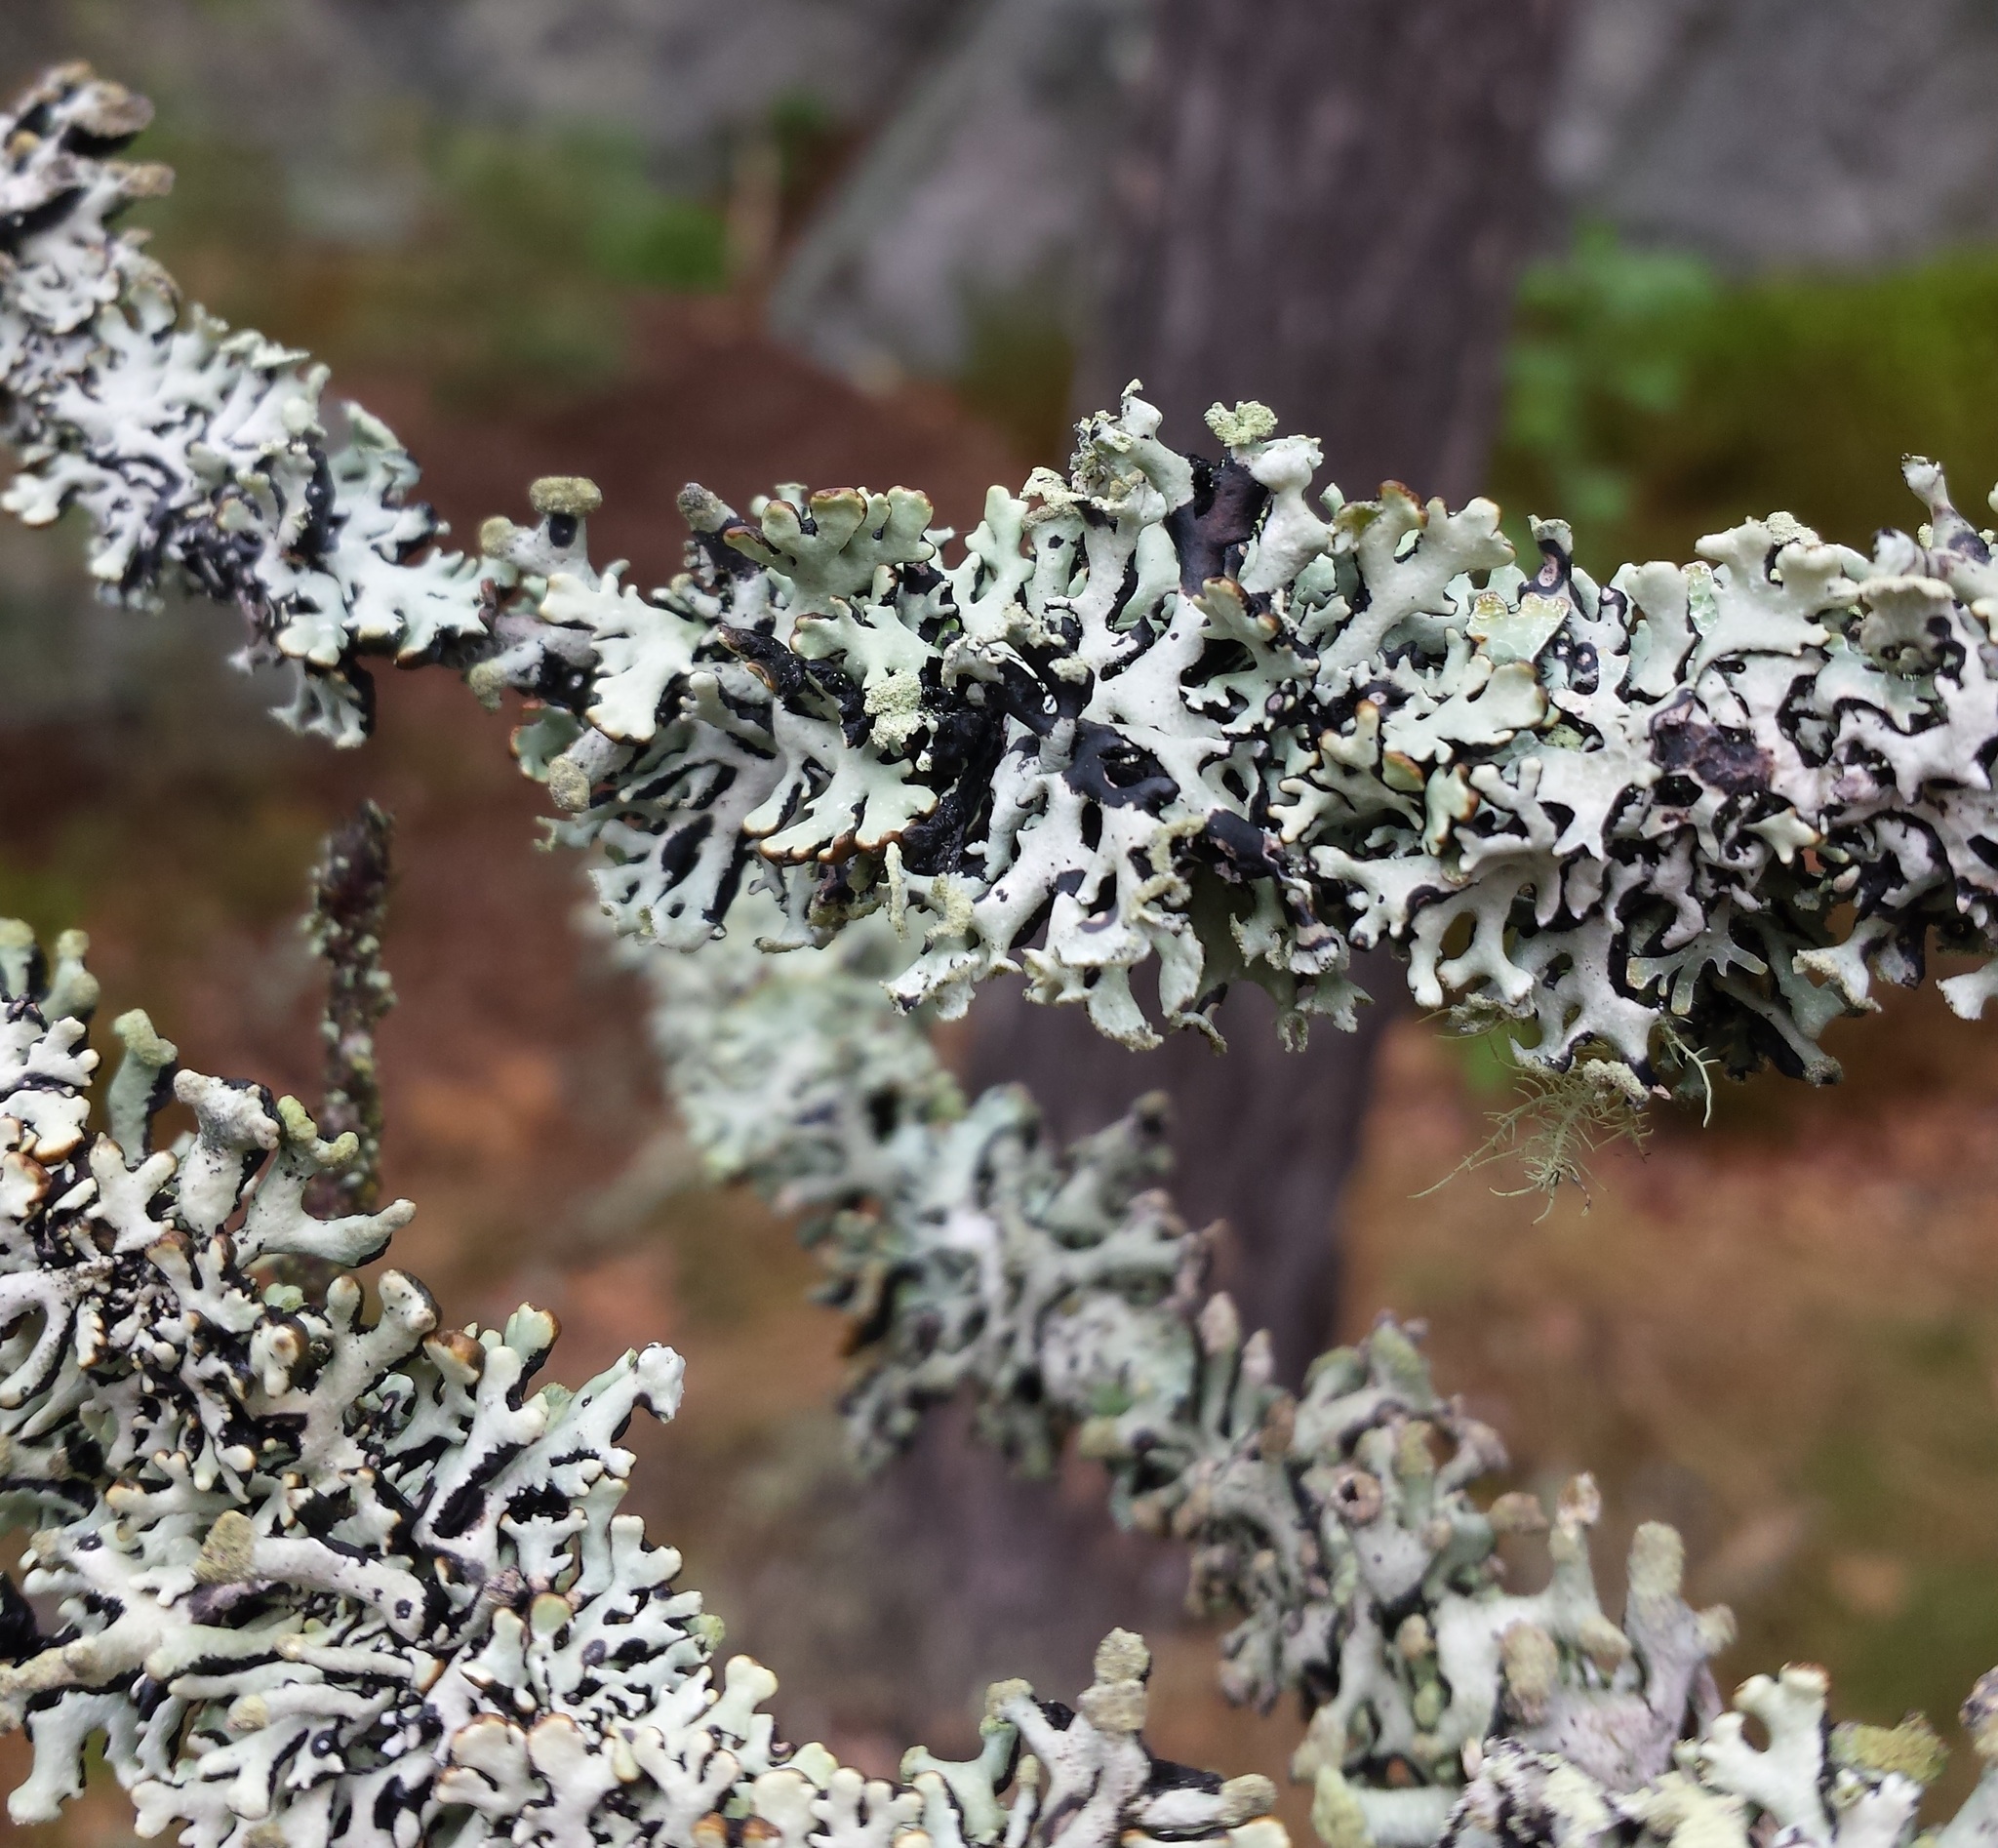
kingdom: Fungi
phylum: Ascomycota
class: Lecanoromycetes
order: Lecanorales
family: Parmeliaceae
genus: Hypogymnia
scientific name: Hypogymnia physodes
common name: Dark crottle
